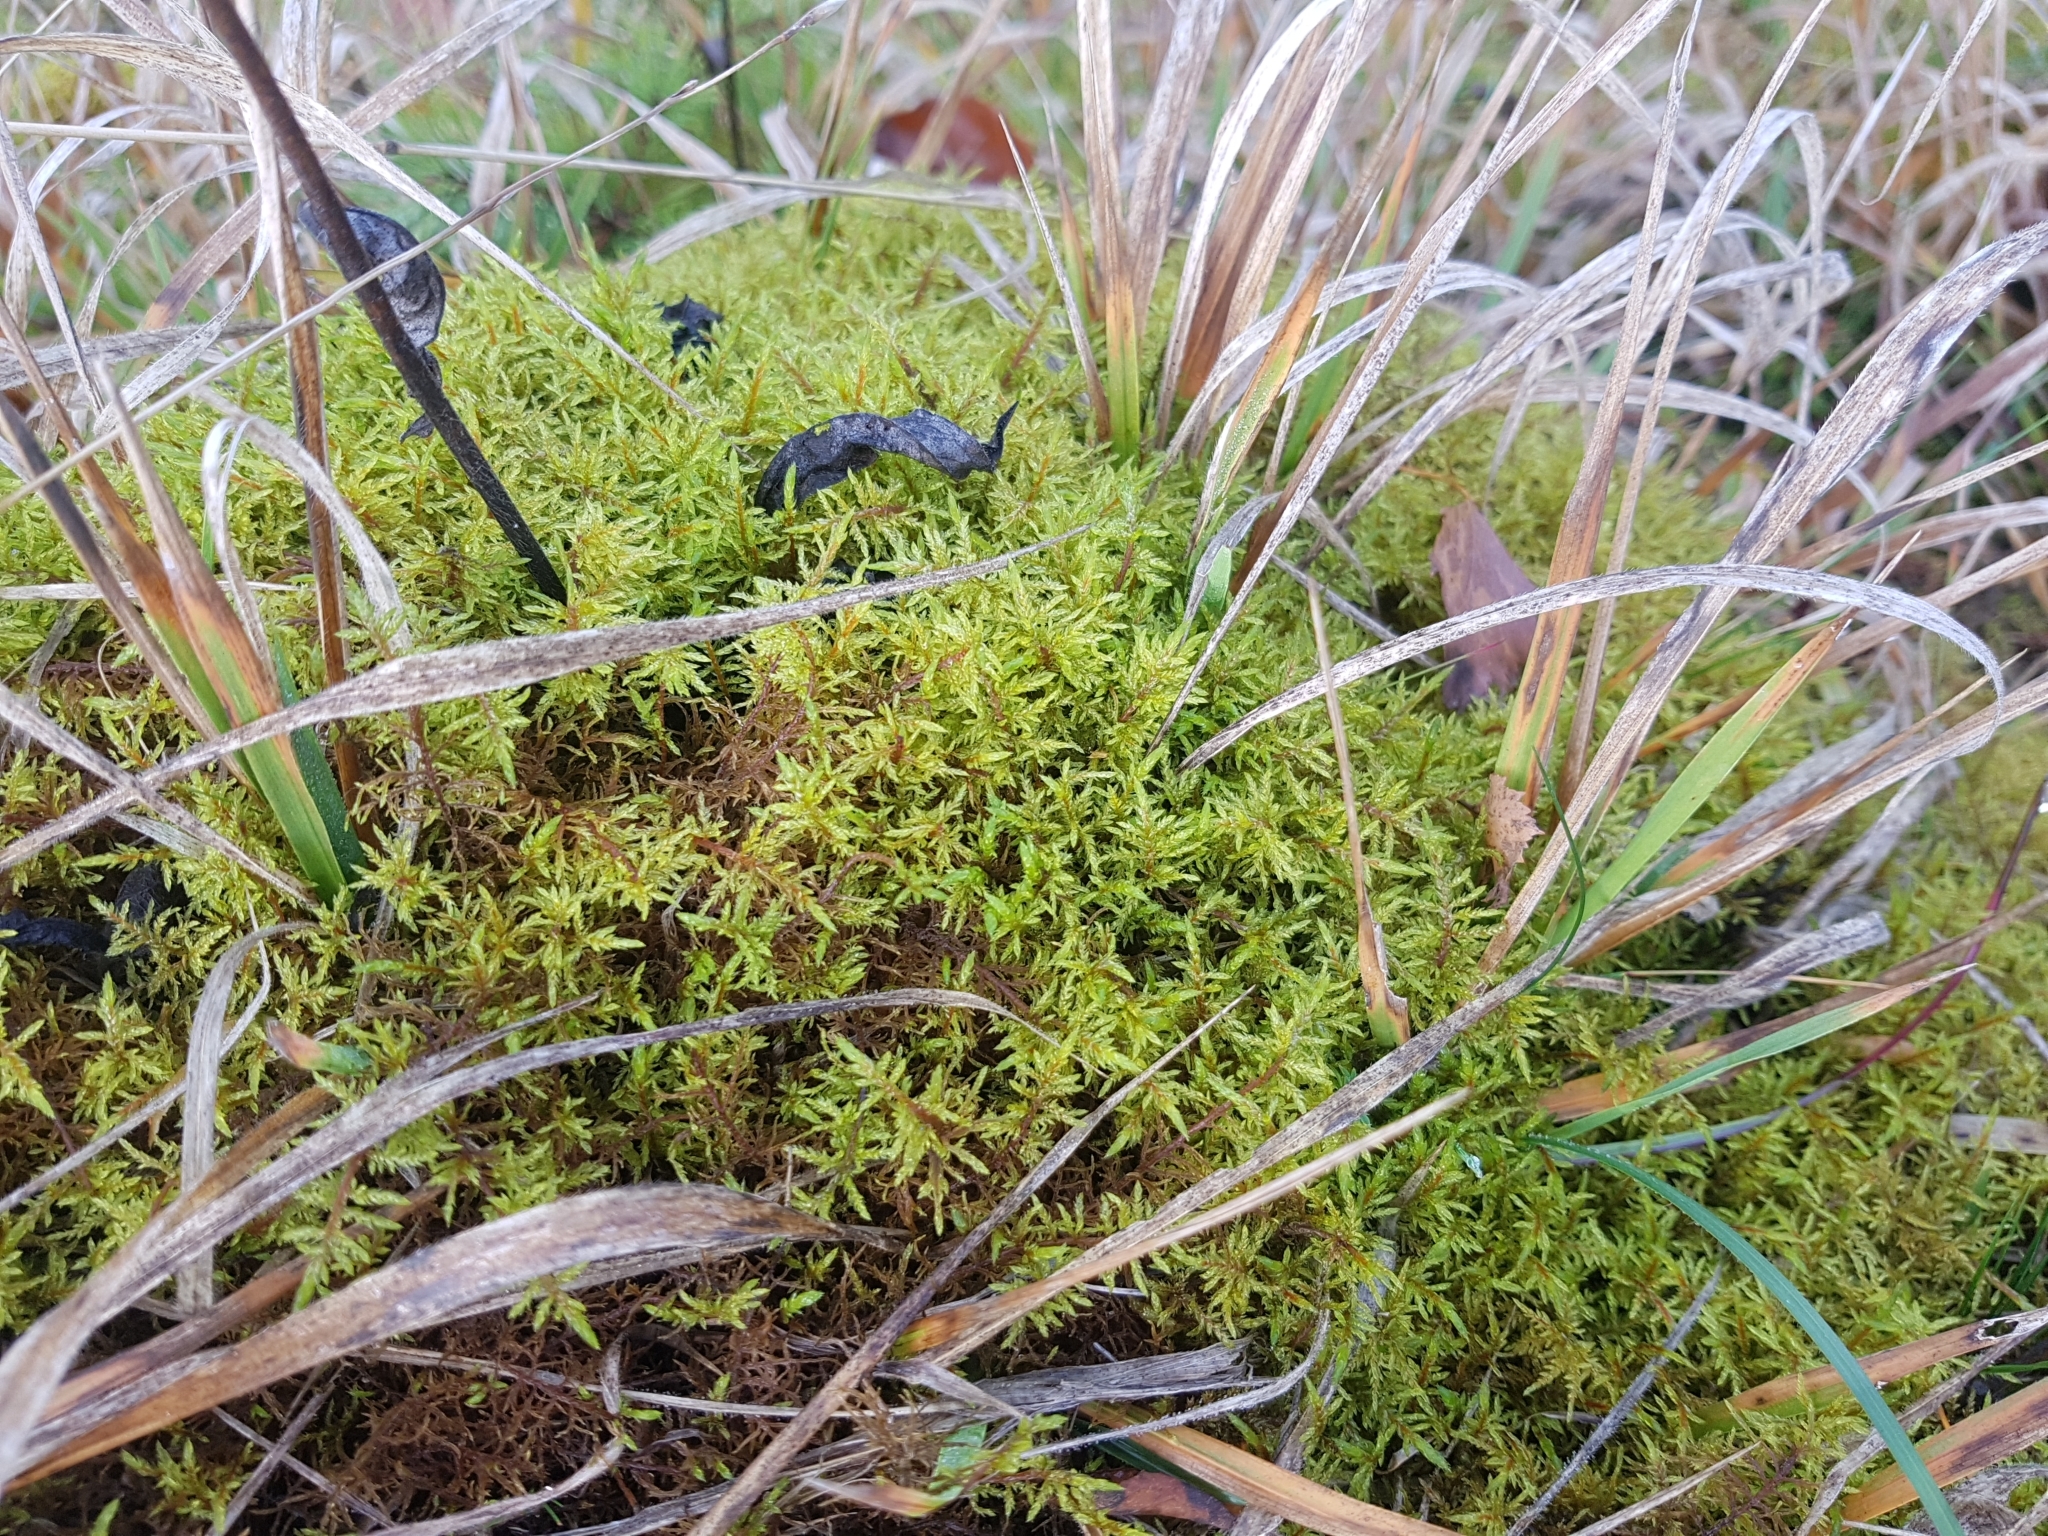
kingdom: Plantae
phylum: Bryophyta
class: Bryopsida
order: Hypnales
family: Hylocomiaceae
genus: Pleurozium
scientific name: Pleurozium schreberi
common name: Red-stemmed feather moss
